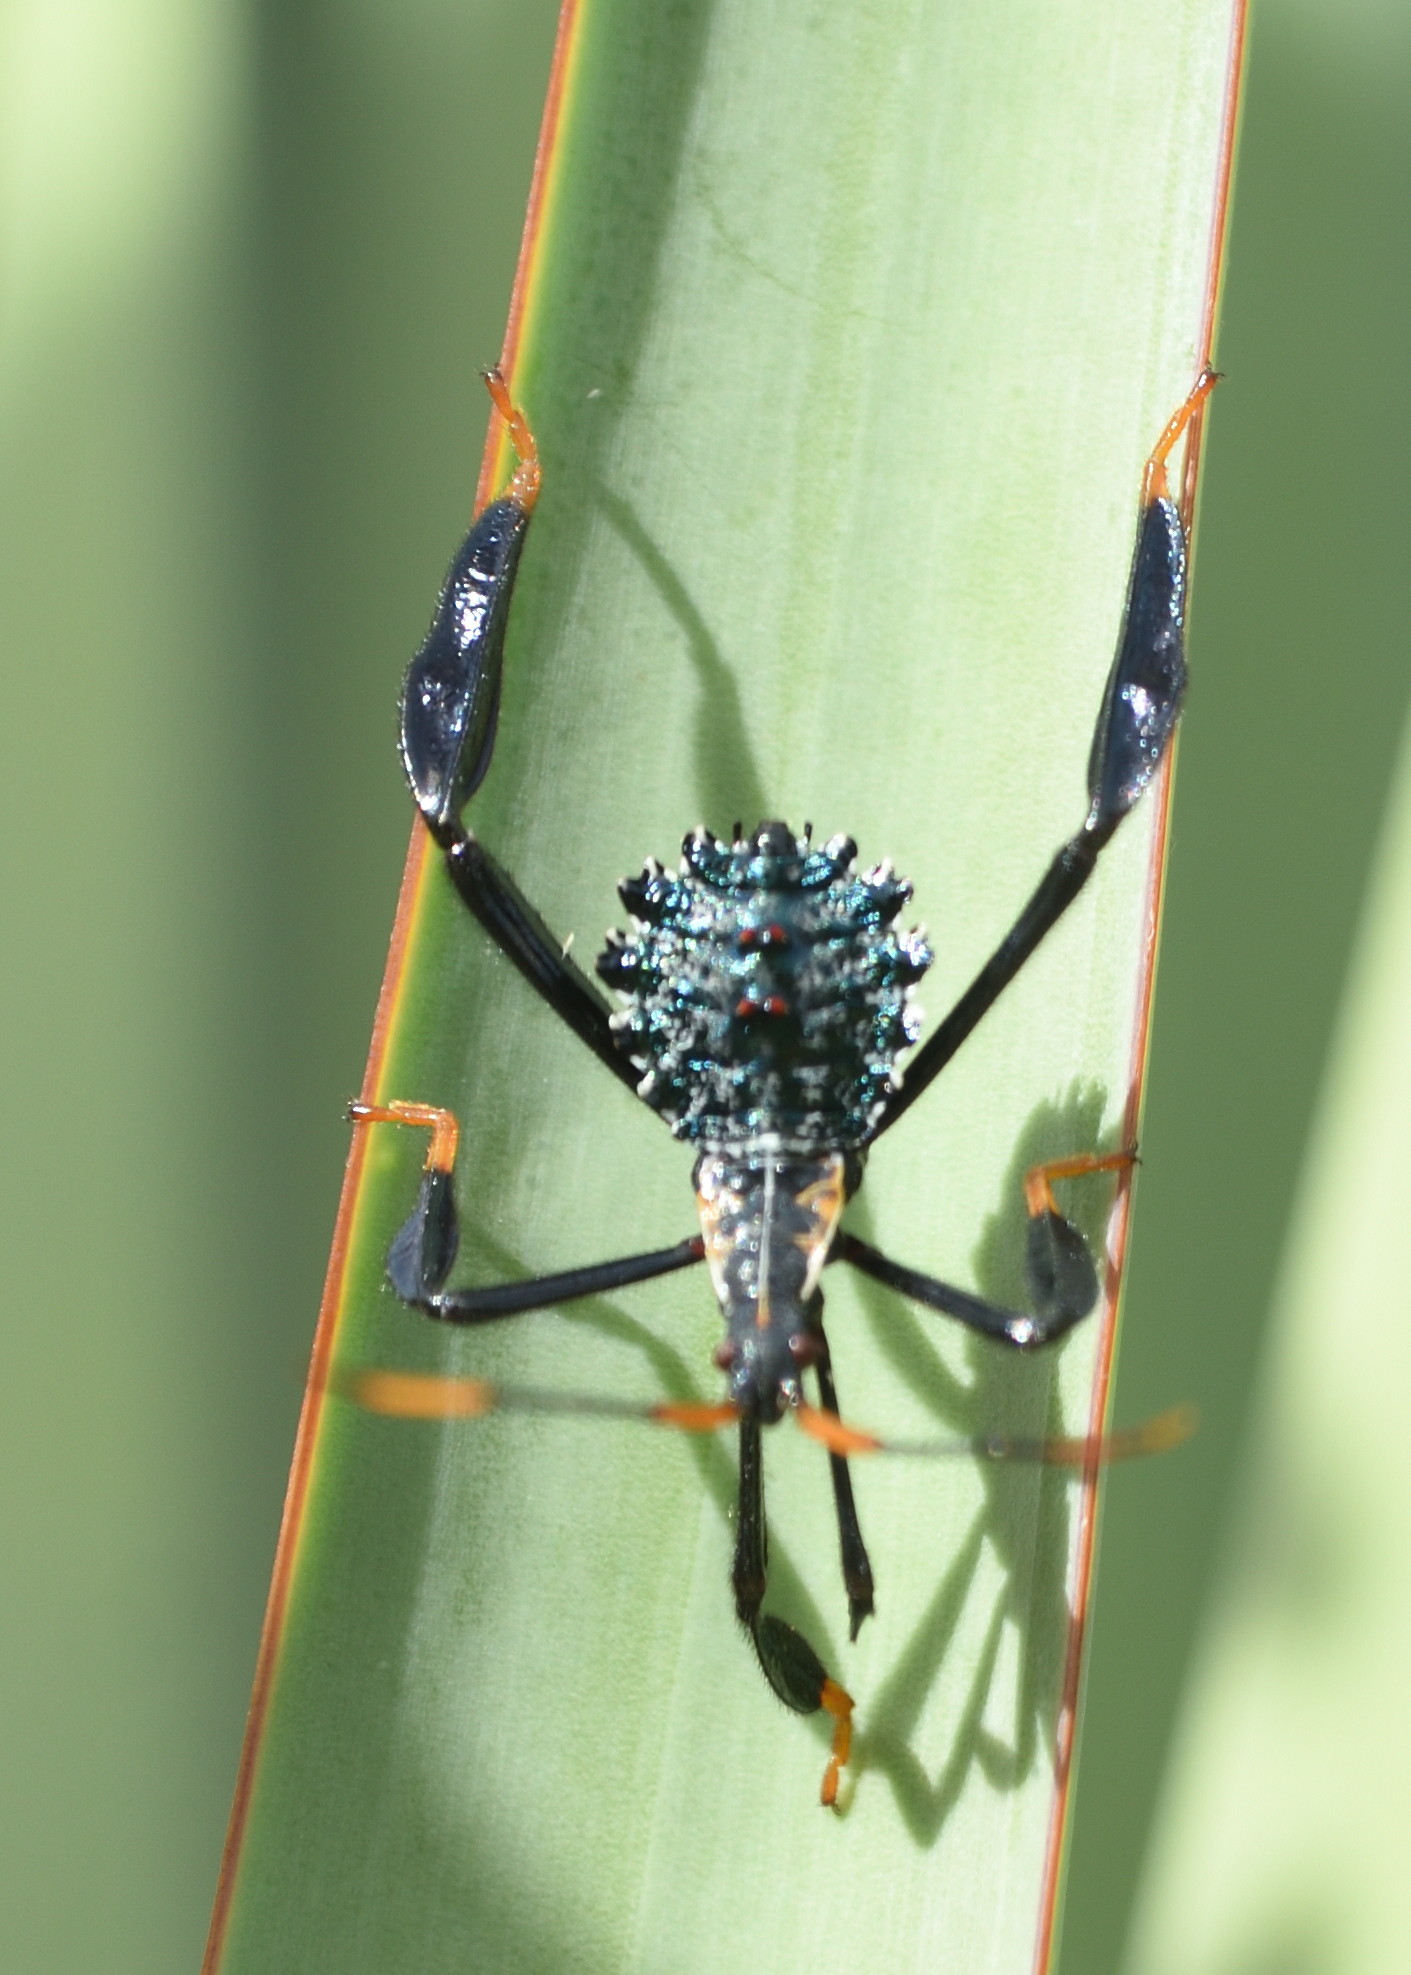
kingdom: Animalia
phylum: Arthropoda
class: Insecta
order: Hemiptera
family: Coreidae
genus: Acanthocephala
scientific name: Acanthocephala thomasi
